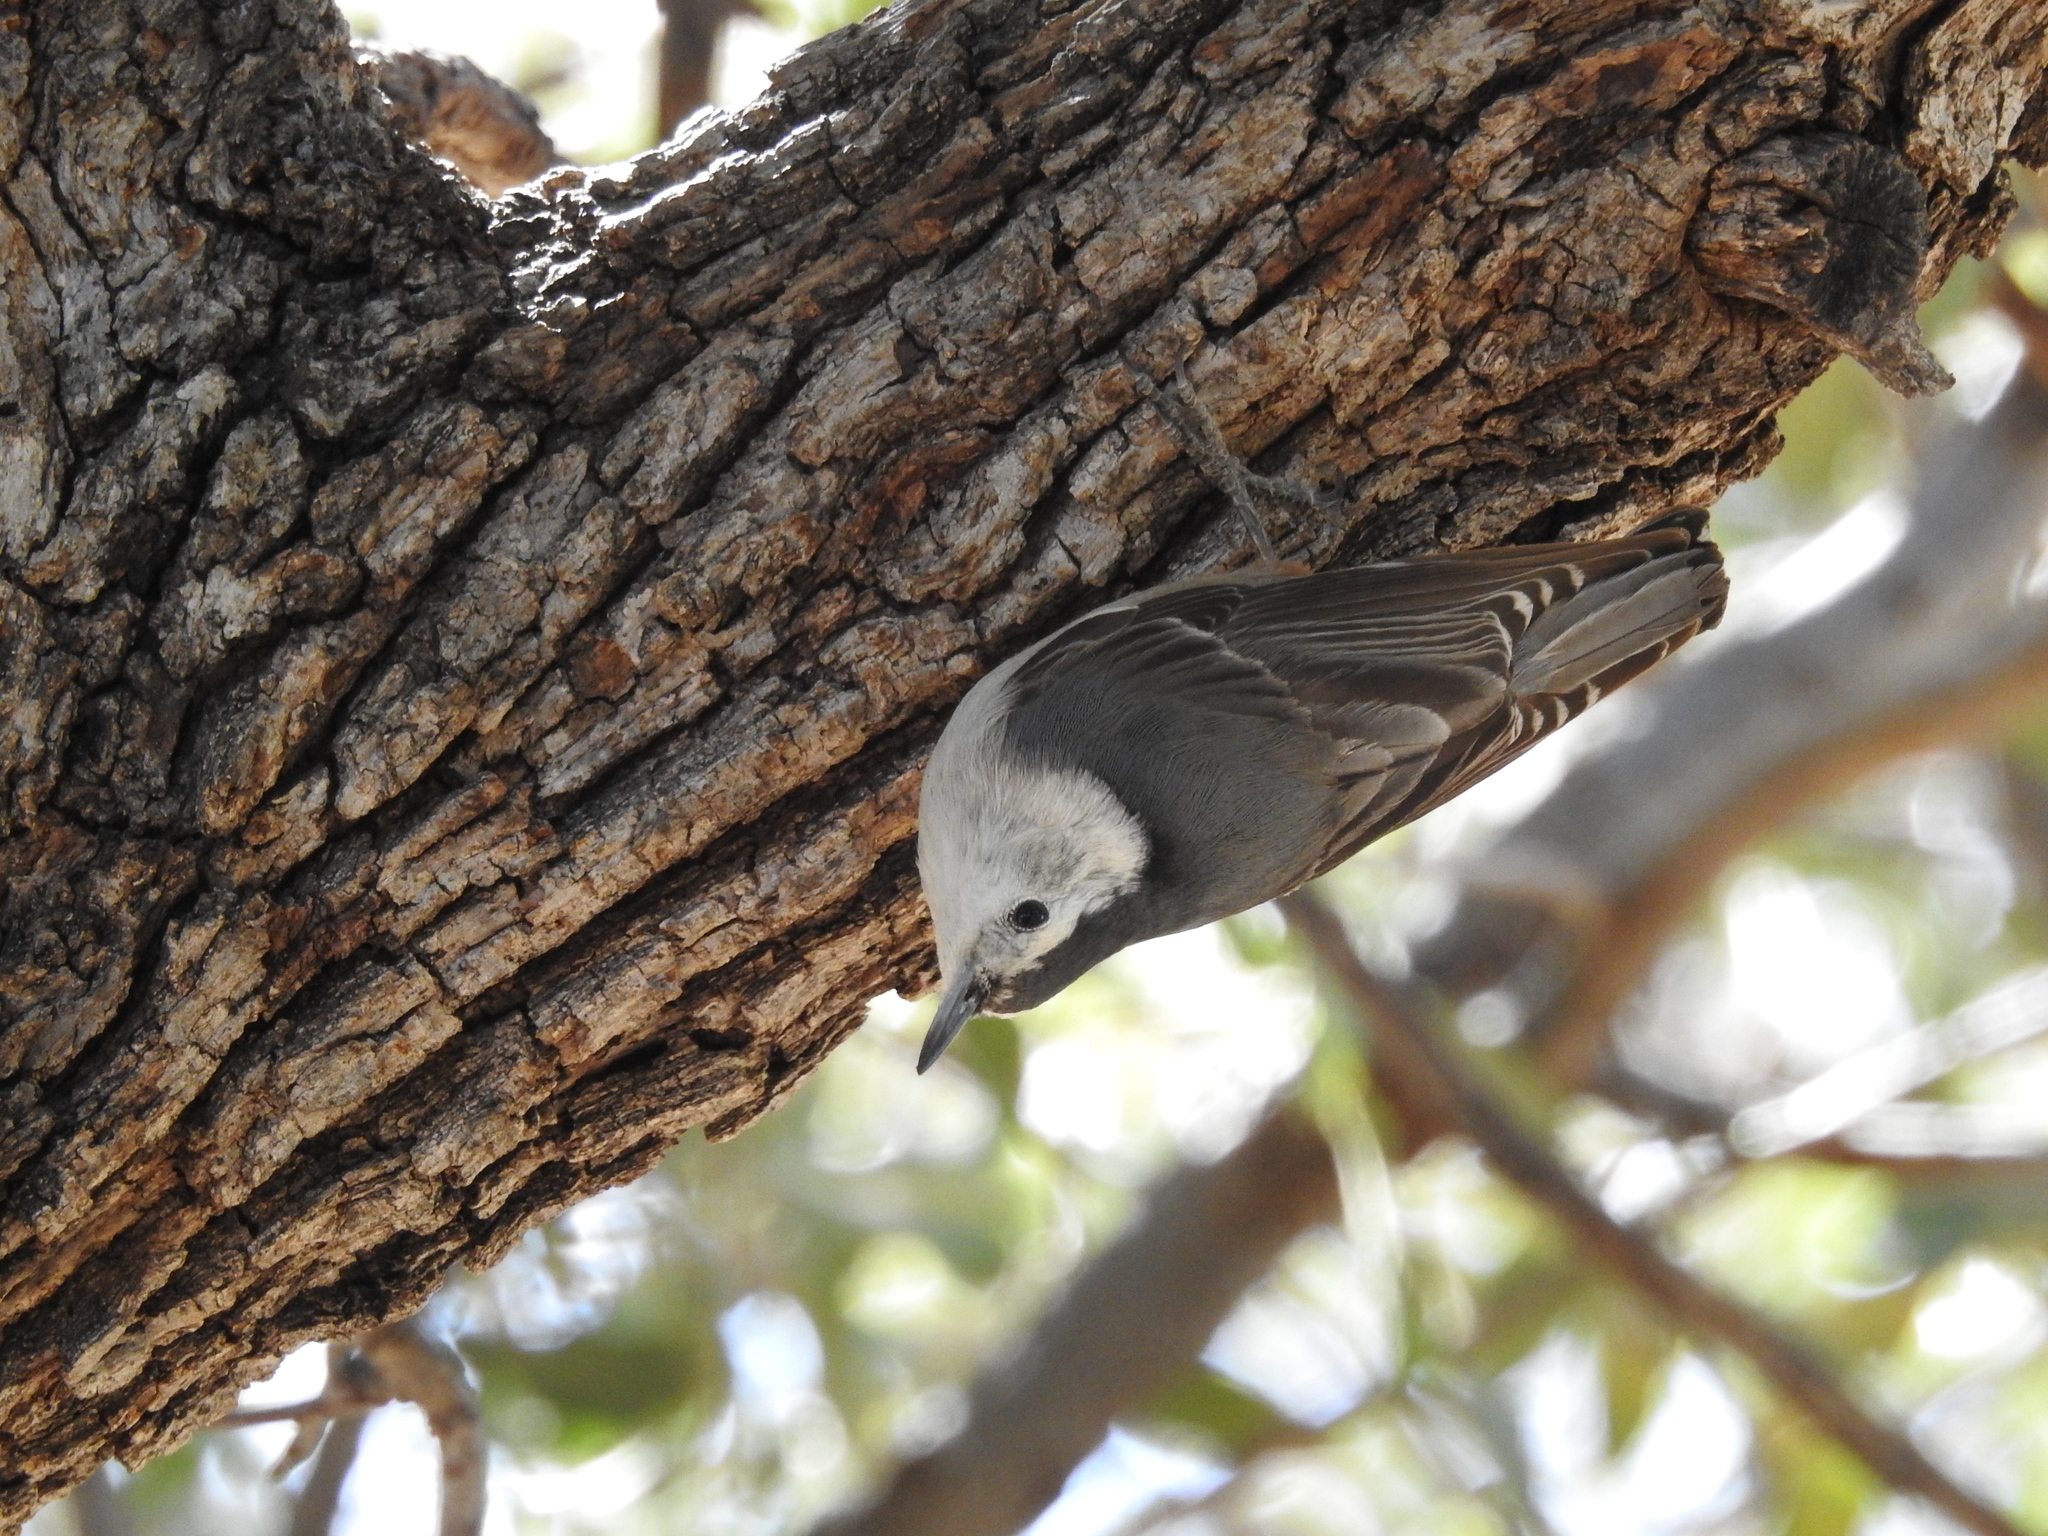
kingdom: Animalia
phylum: Chordata
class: Aves
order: Passeriformes
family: Sittidae
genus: Sitta
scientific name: Sitta carolinensis
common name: White-breasted nuthatch
